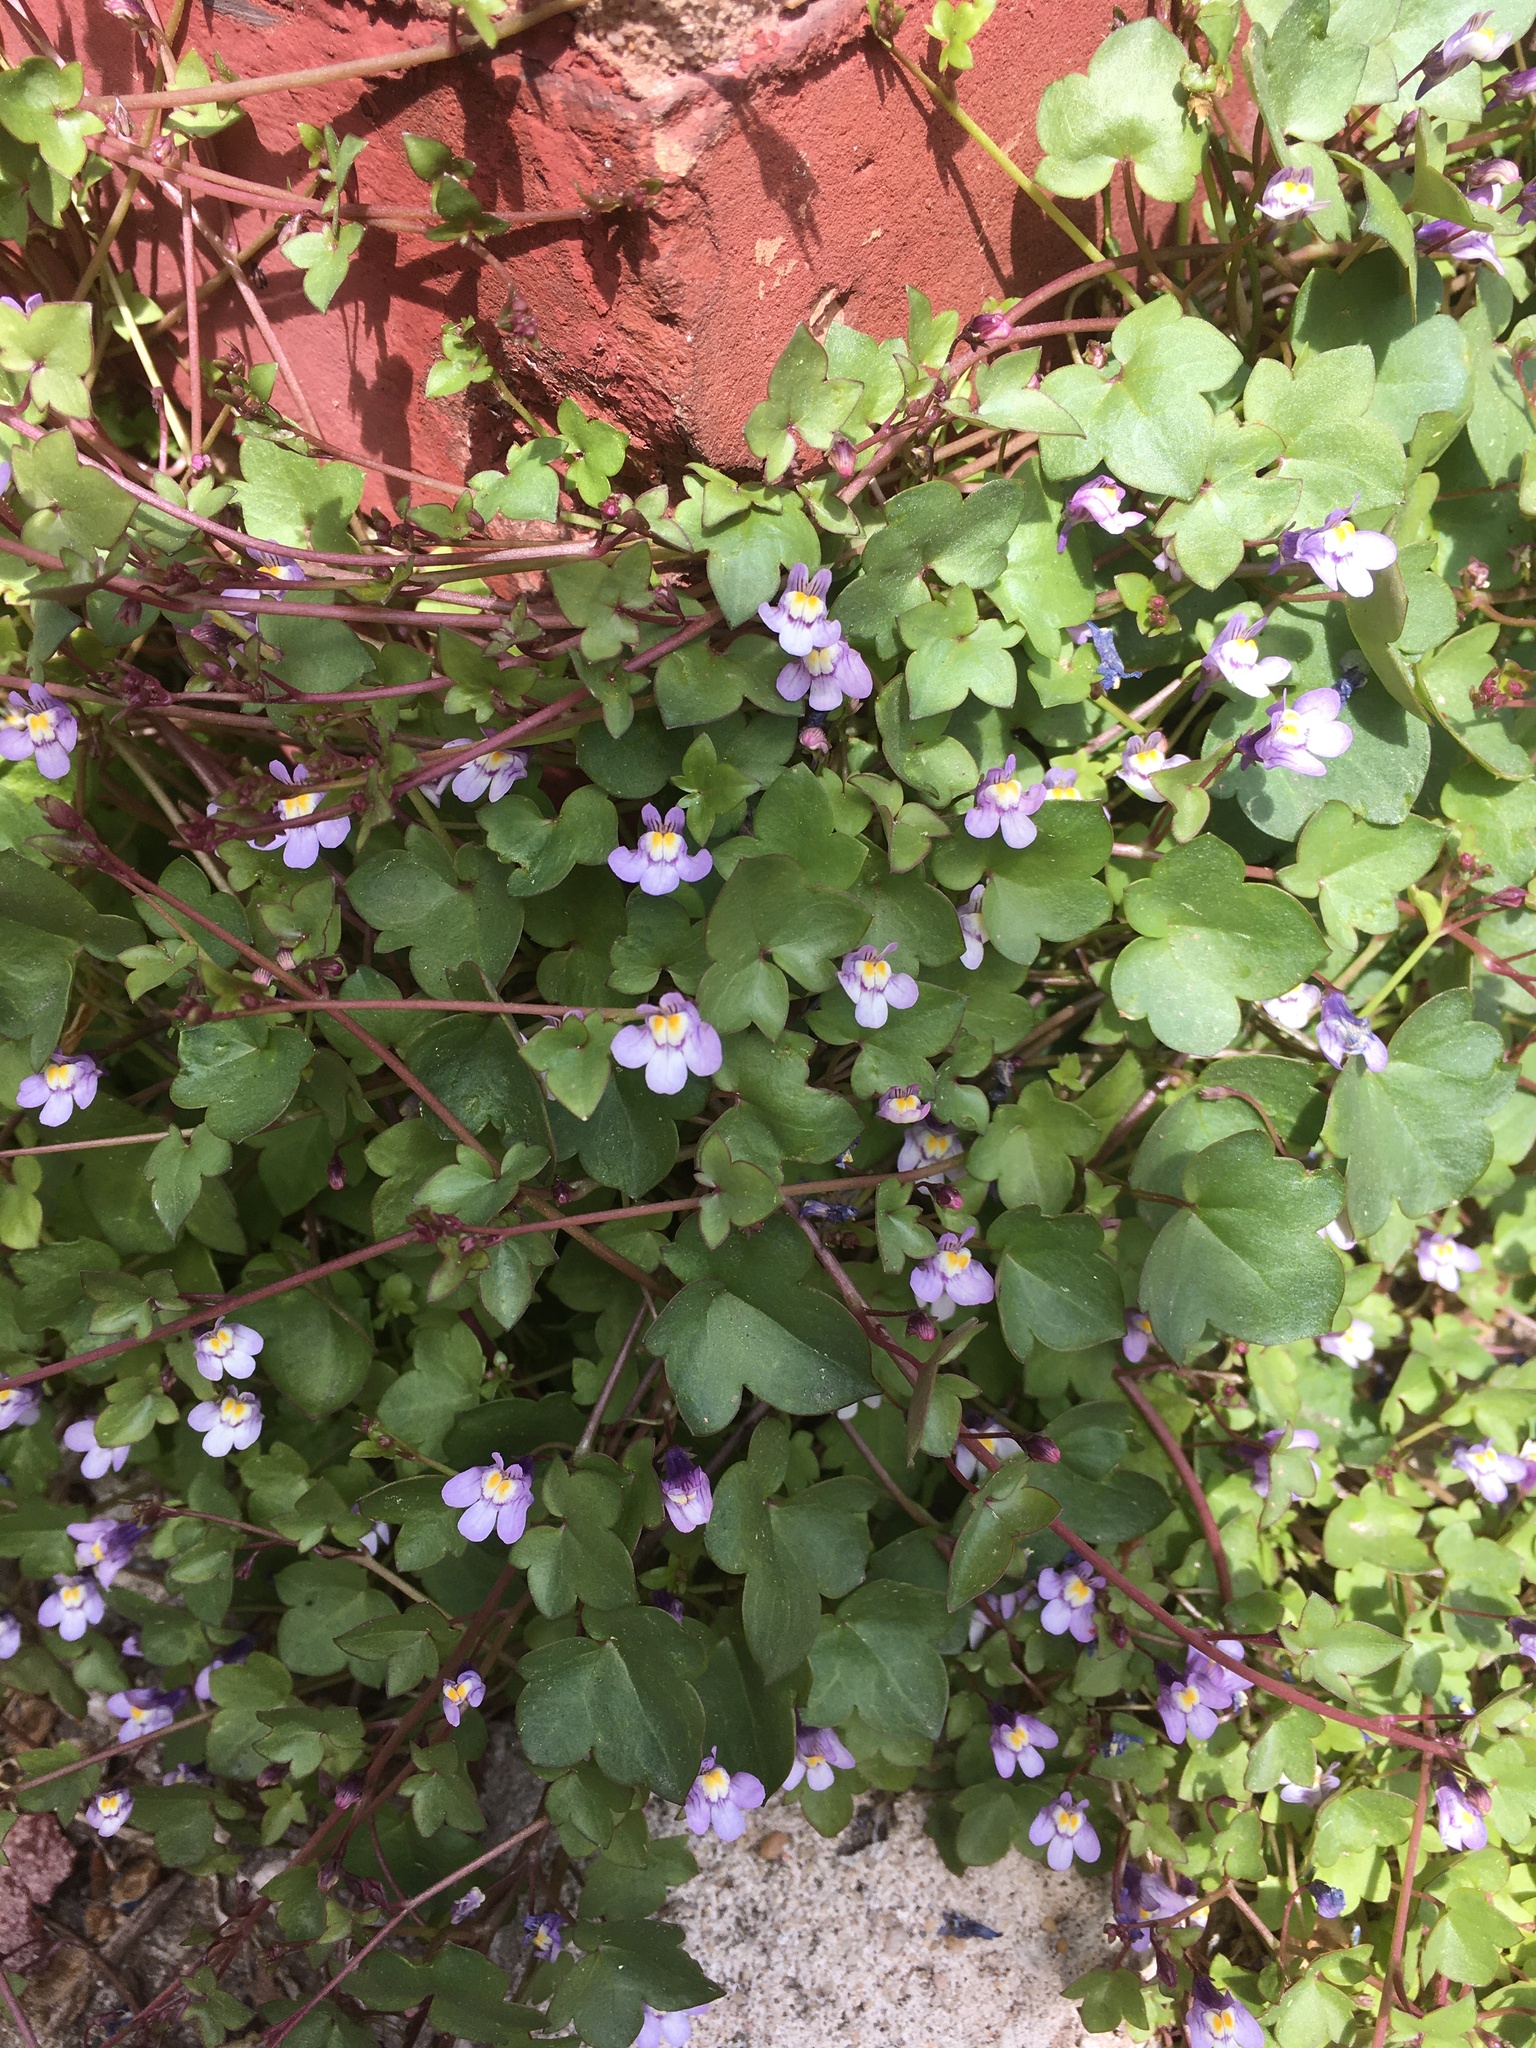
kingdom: Plantae
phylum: Tracheophyta
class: Magnoliopsida
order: Lamiales
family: Plantaginaceae
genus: Cymbalaria
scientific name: Cymbalaria muralis
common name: Ivy-leaved toadflax
